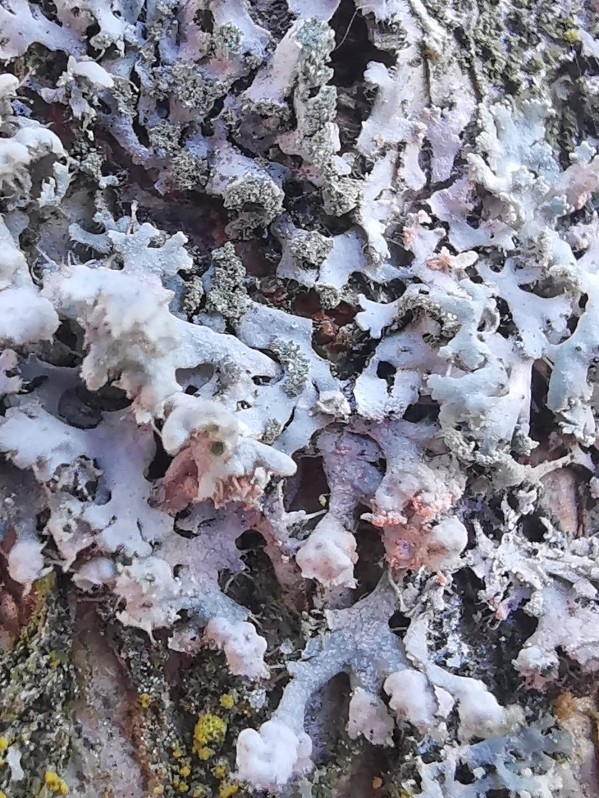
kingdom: Fungi
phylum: Basidiomycota
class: Agaricomycetes
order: Corticiales
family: Corticiaceae
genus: Erythricium
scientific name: Erythricium aurantiacum
